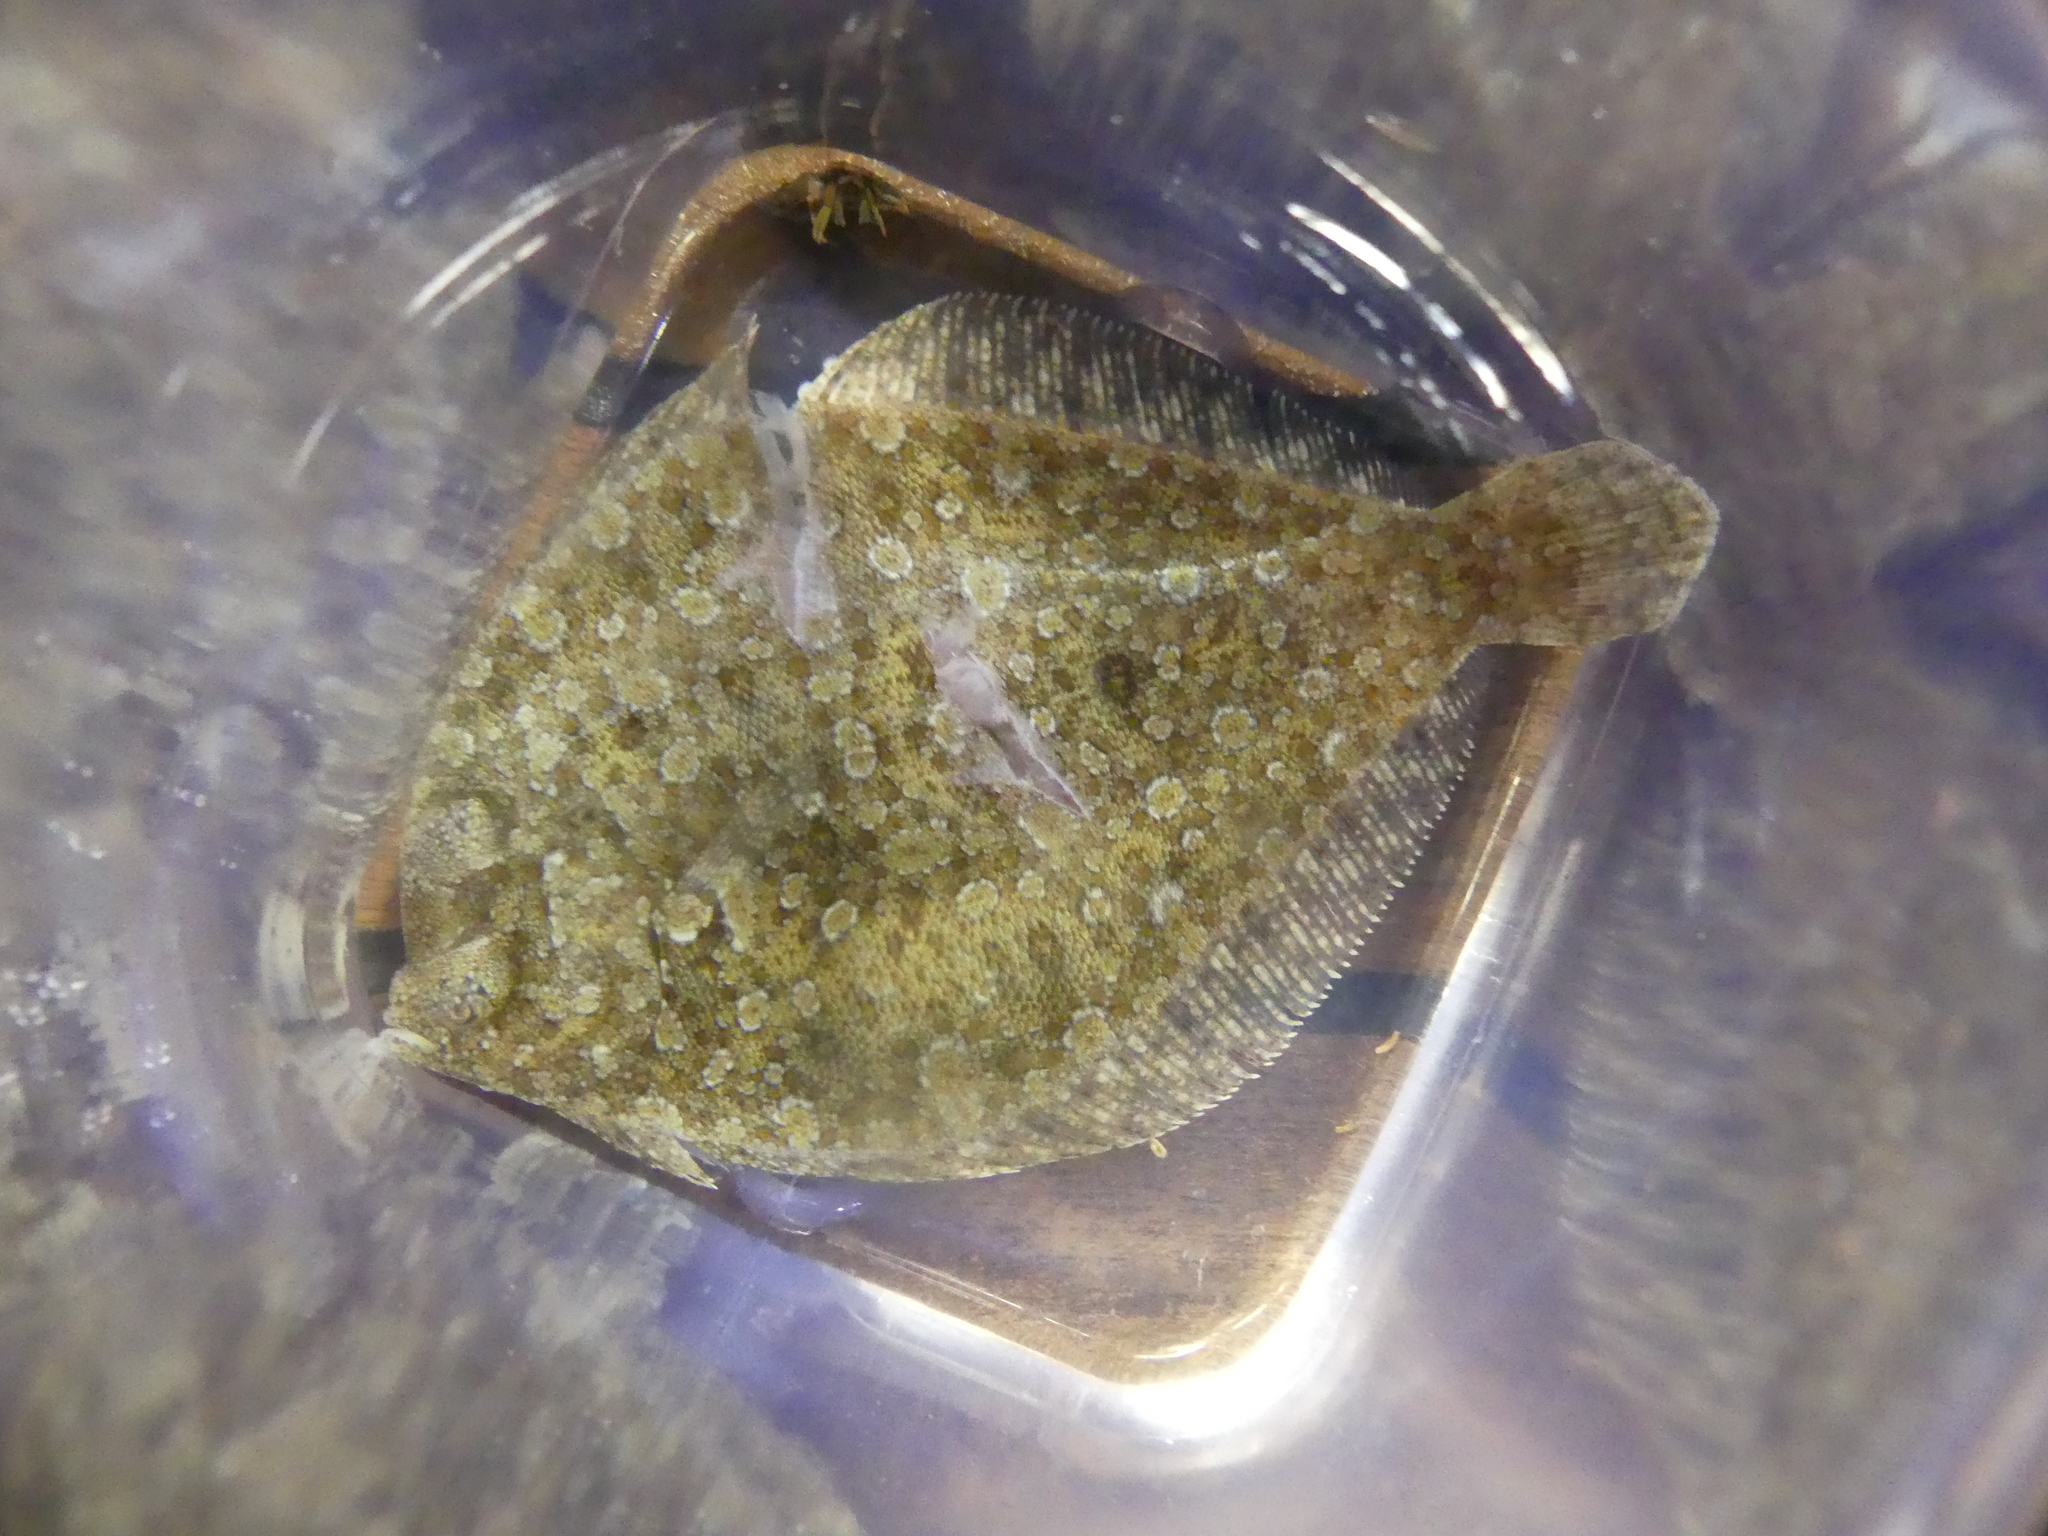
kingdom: Animalia
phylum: Chordata
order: Pleuronectiformes
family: Bothidae
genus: Bothus
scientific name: Bothus podas
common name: Wide-eyed flounder
